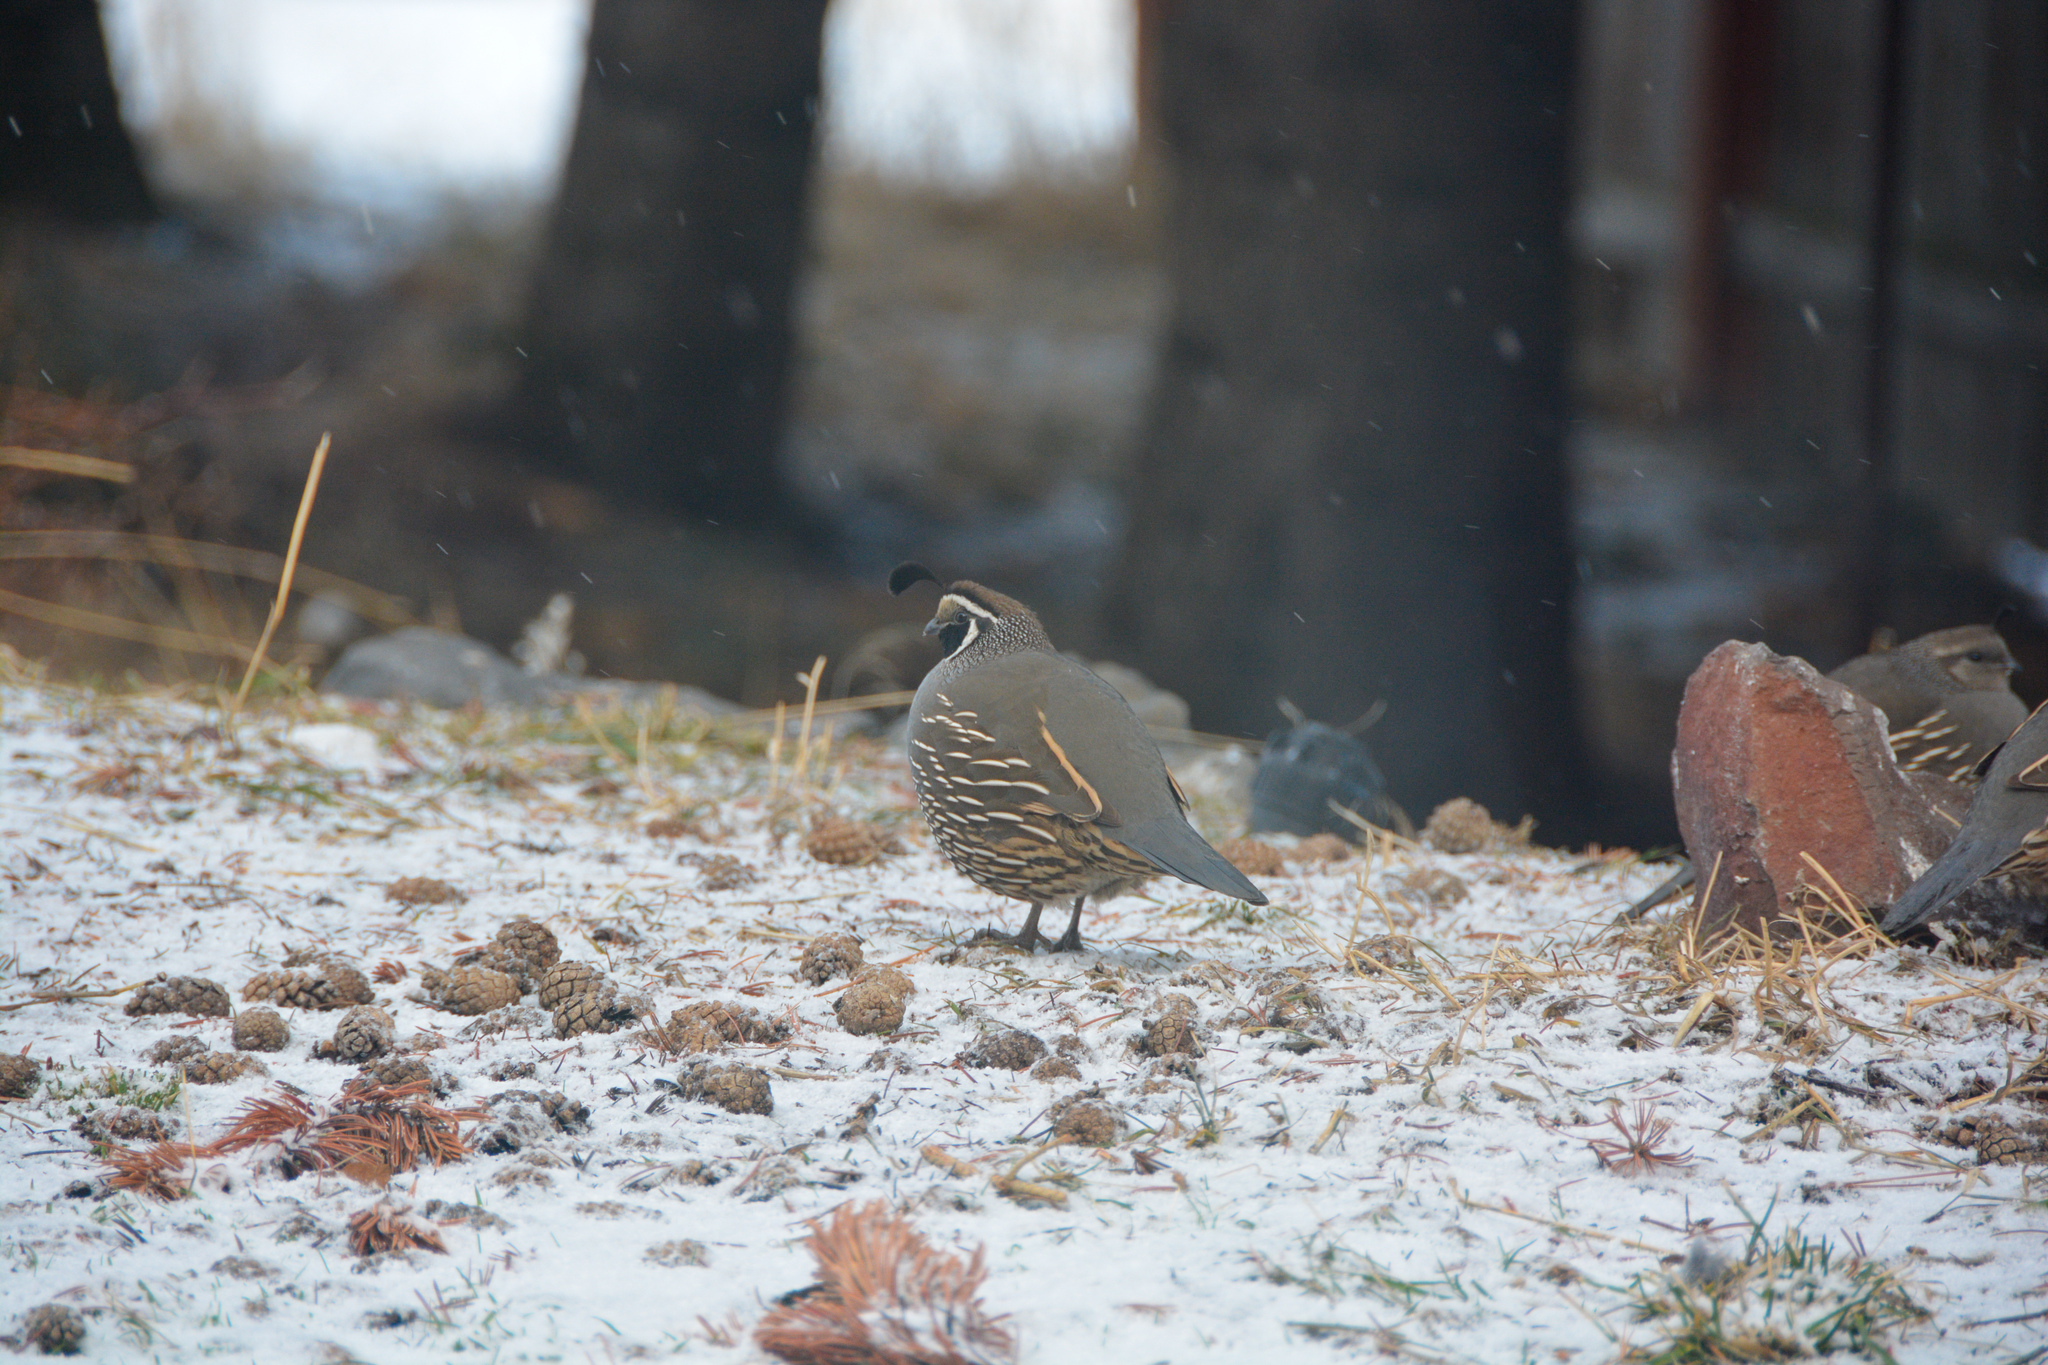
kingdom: Animalia
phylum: Chordata
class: Aves
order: Galliformes
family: Odontophoridae
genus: Callipepla
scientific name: Callipepla californica
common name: California quail
